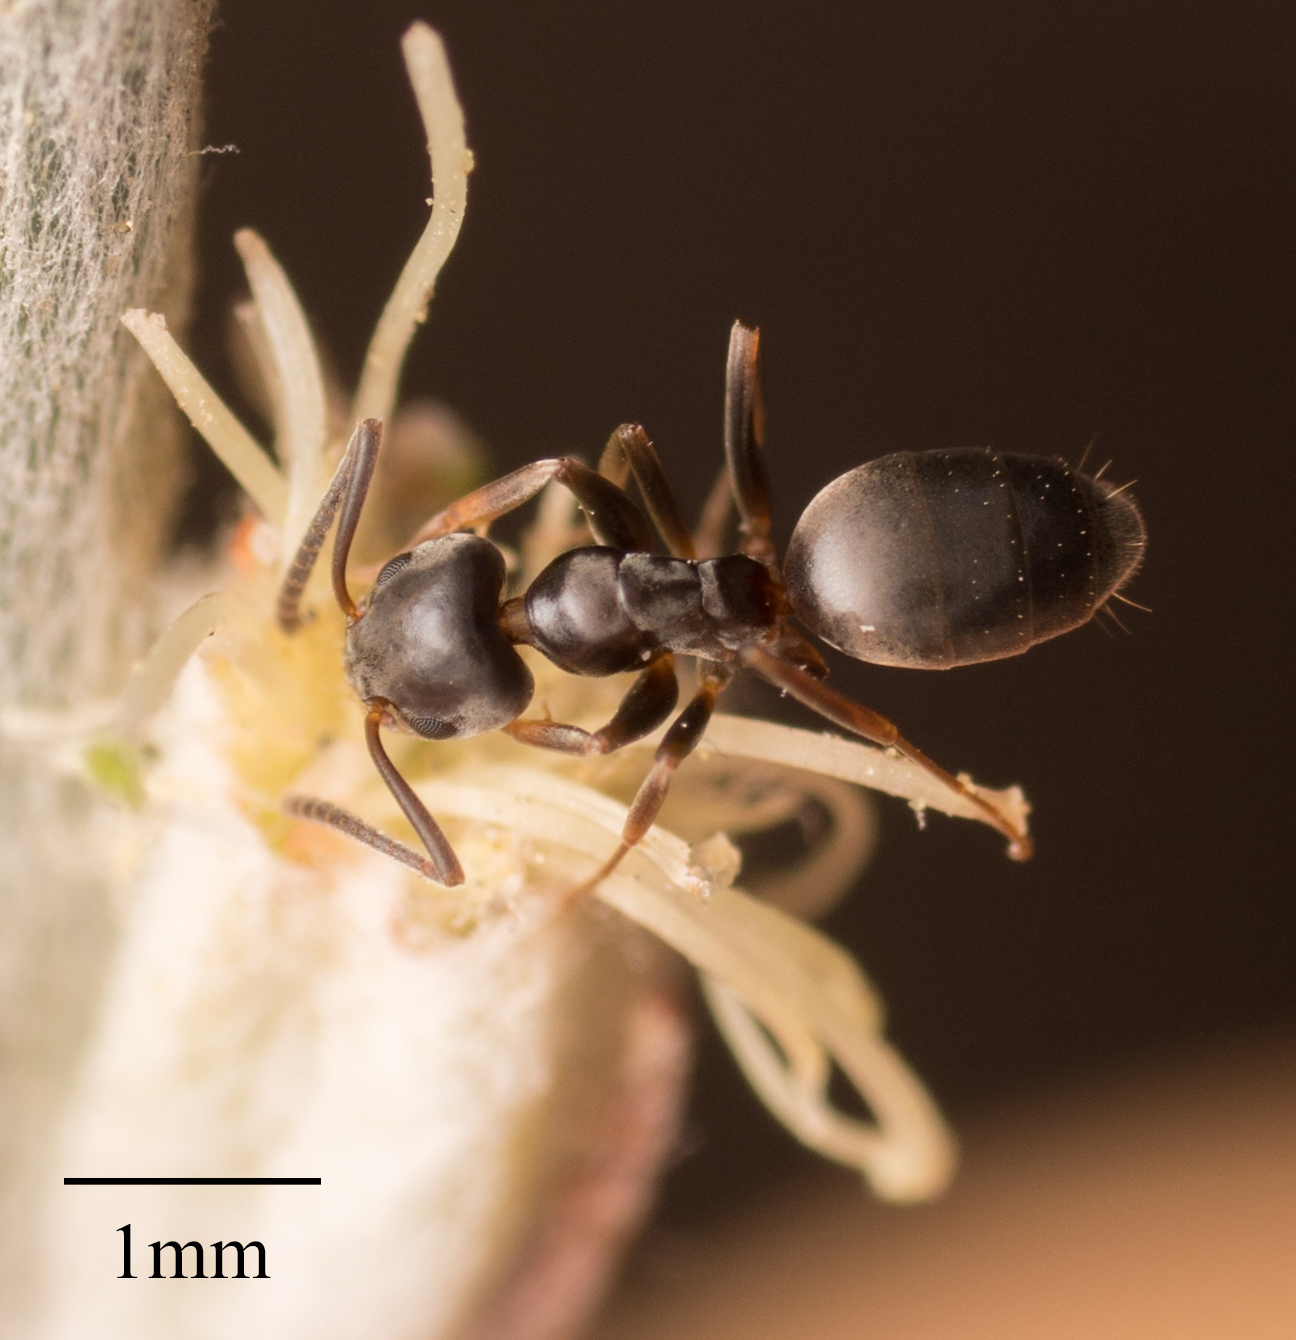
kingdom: Animalia
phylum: Arthropoda
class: Insecta
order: Hymenoptera
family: Formicidae
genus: Tapinoma
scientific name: Tapinoma sessile
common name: Odorous house ant
